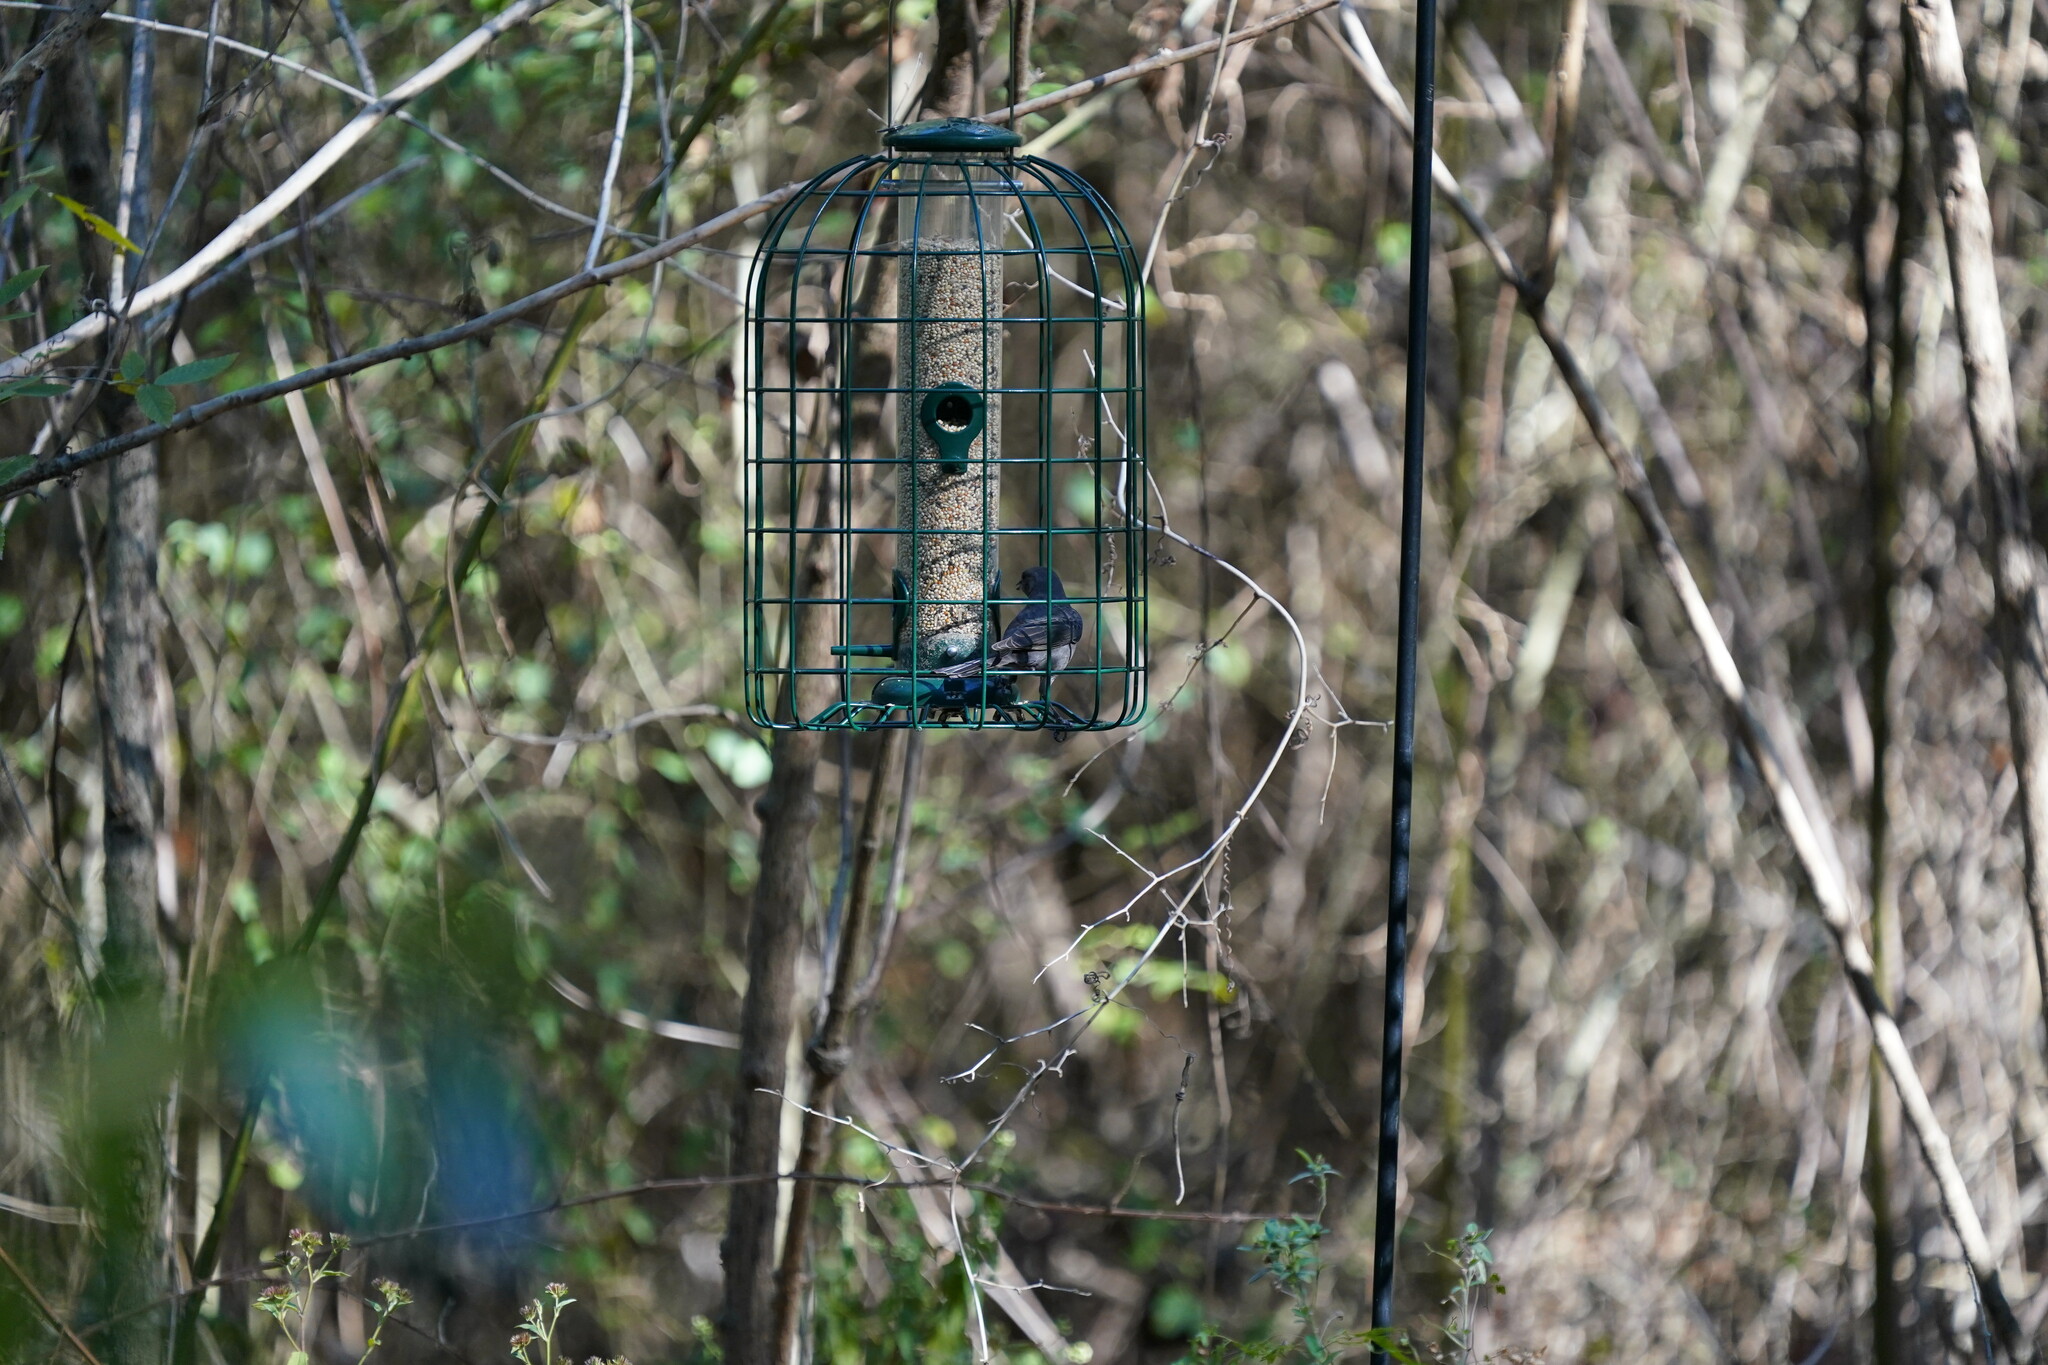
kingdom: Animalia
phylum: Chordata
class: Aves
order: Passeriformes
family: Icteridae
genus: Molothrus
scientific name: Molothrus ater
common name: Brown-headed cowbird
